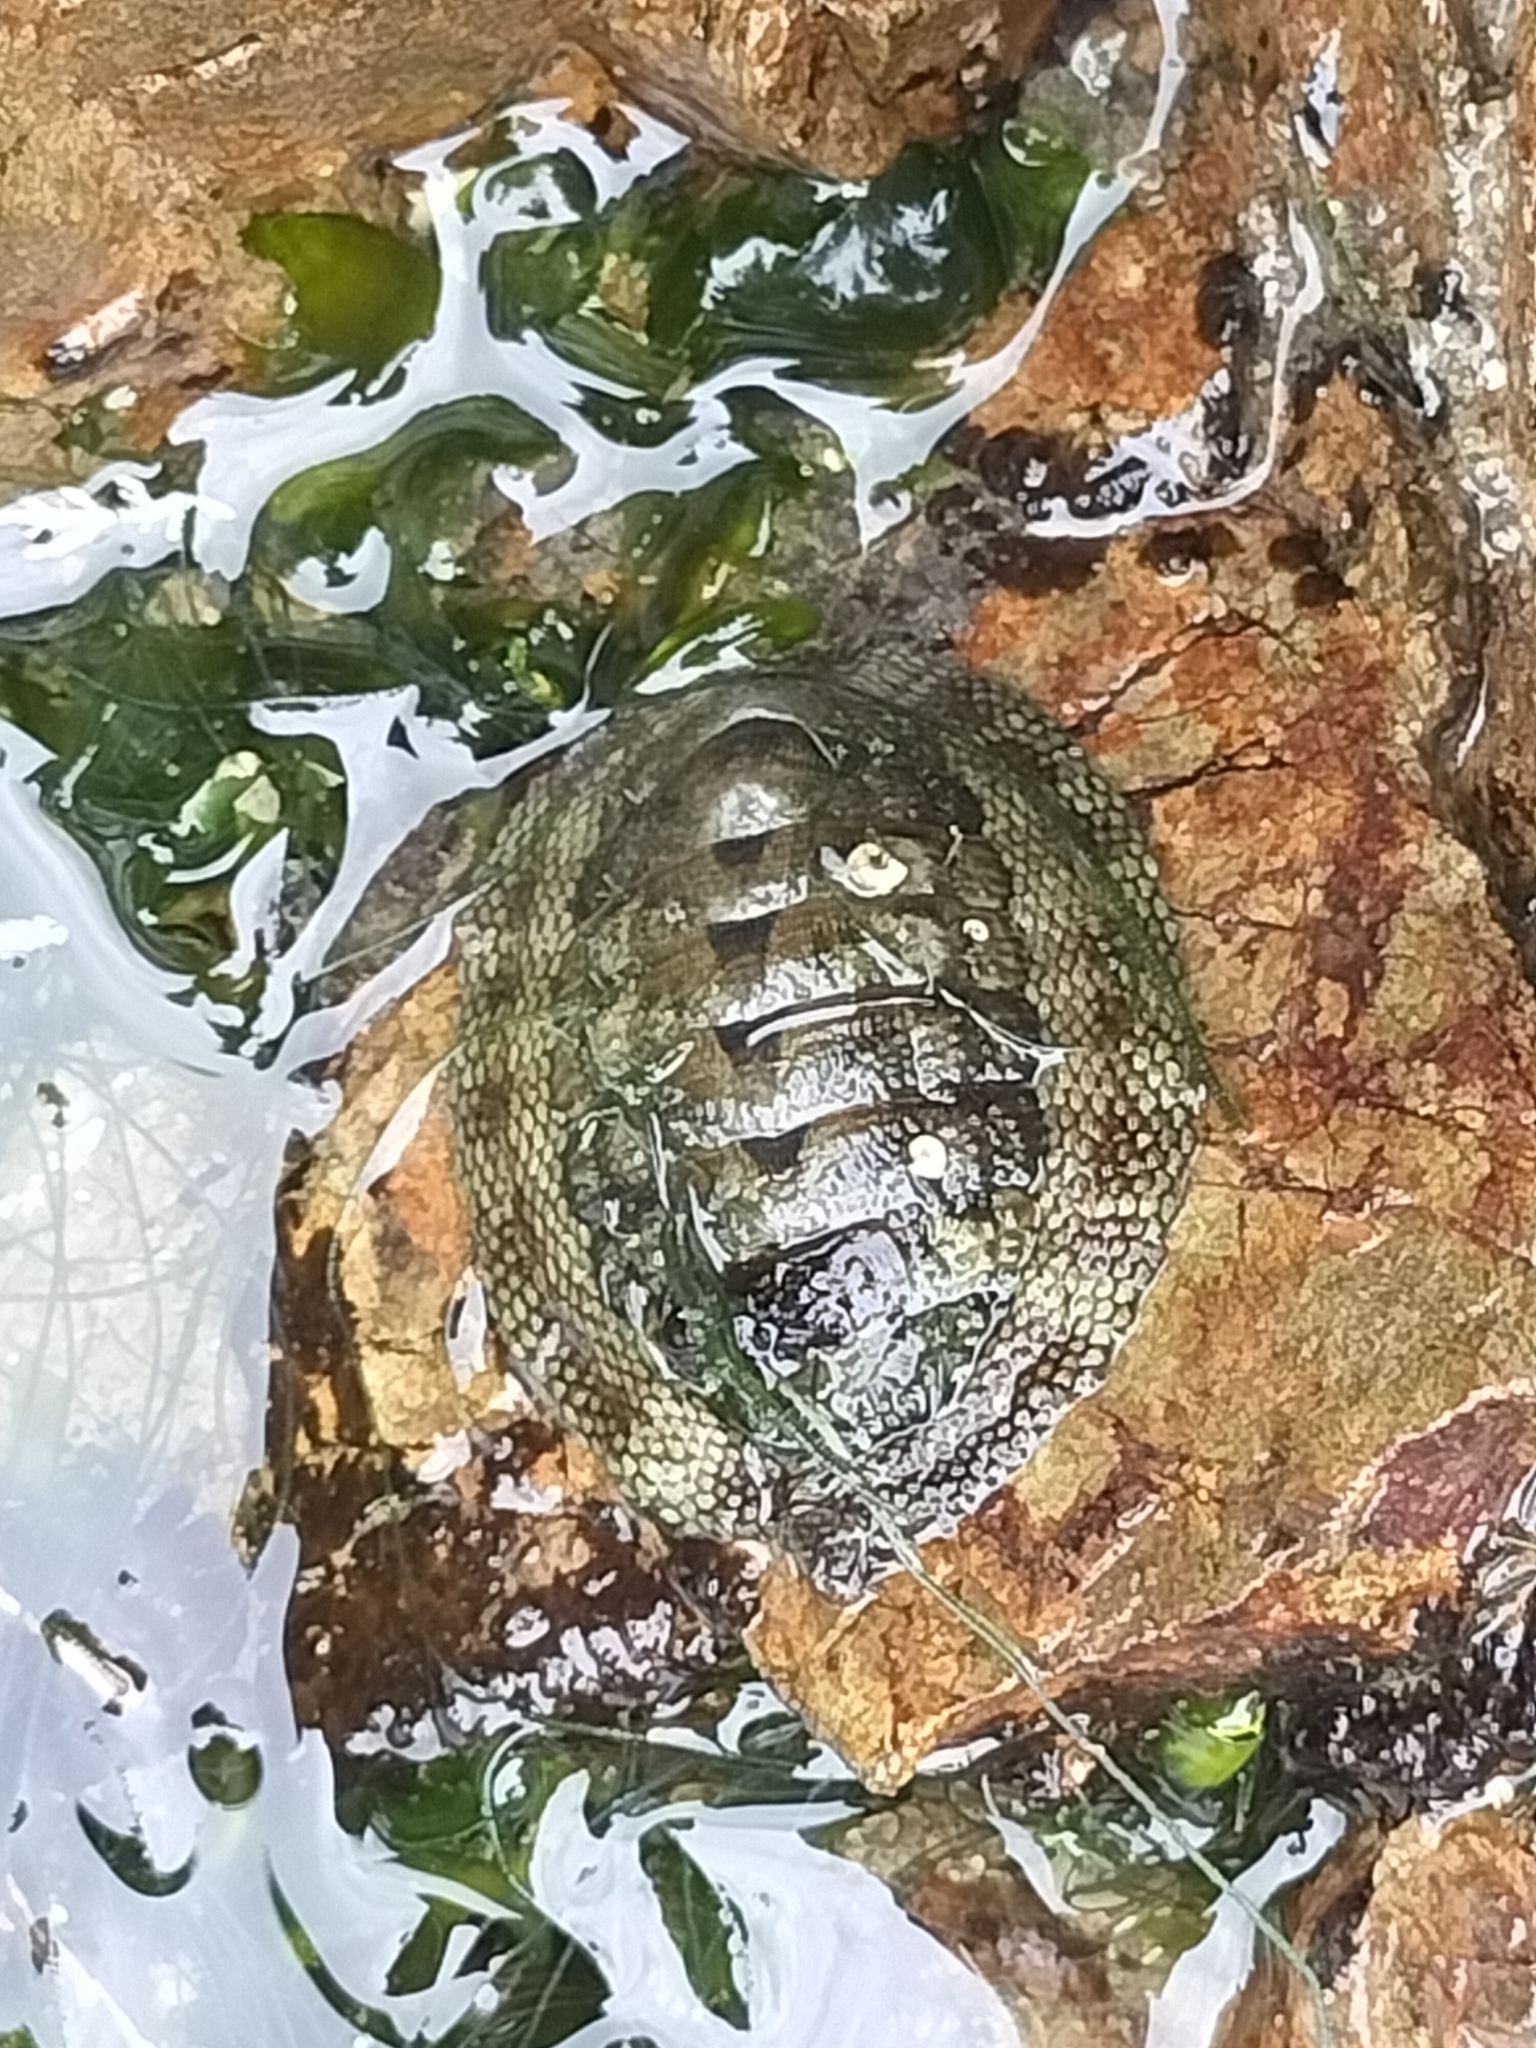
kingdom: Animalia
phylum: Mollusca
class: Polyplacophora
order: Chitonida
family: Chitonidae
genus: Sypharochiton
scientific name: Sypharochiton pelliserpentis
